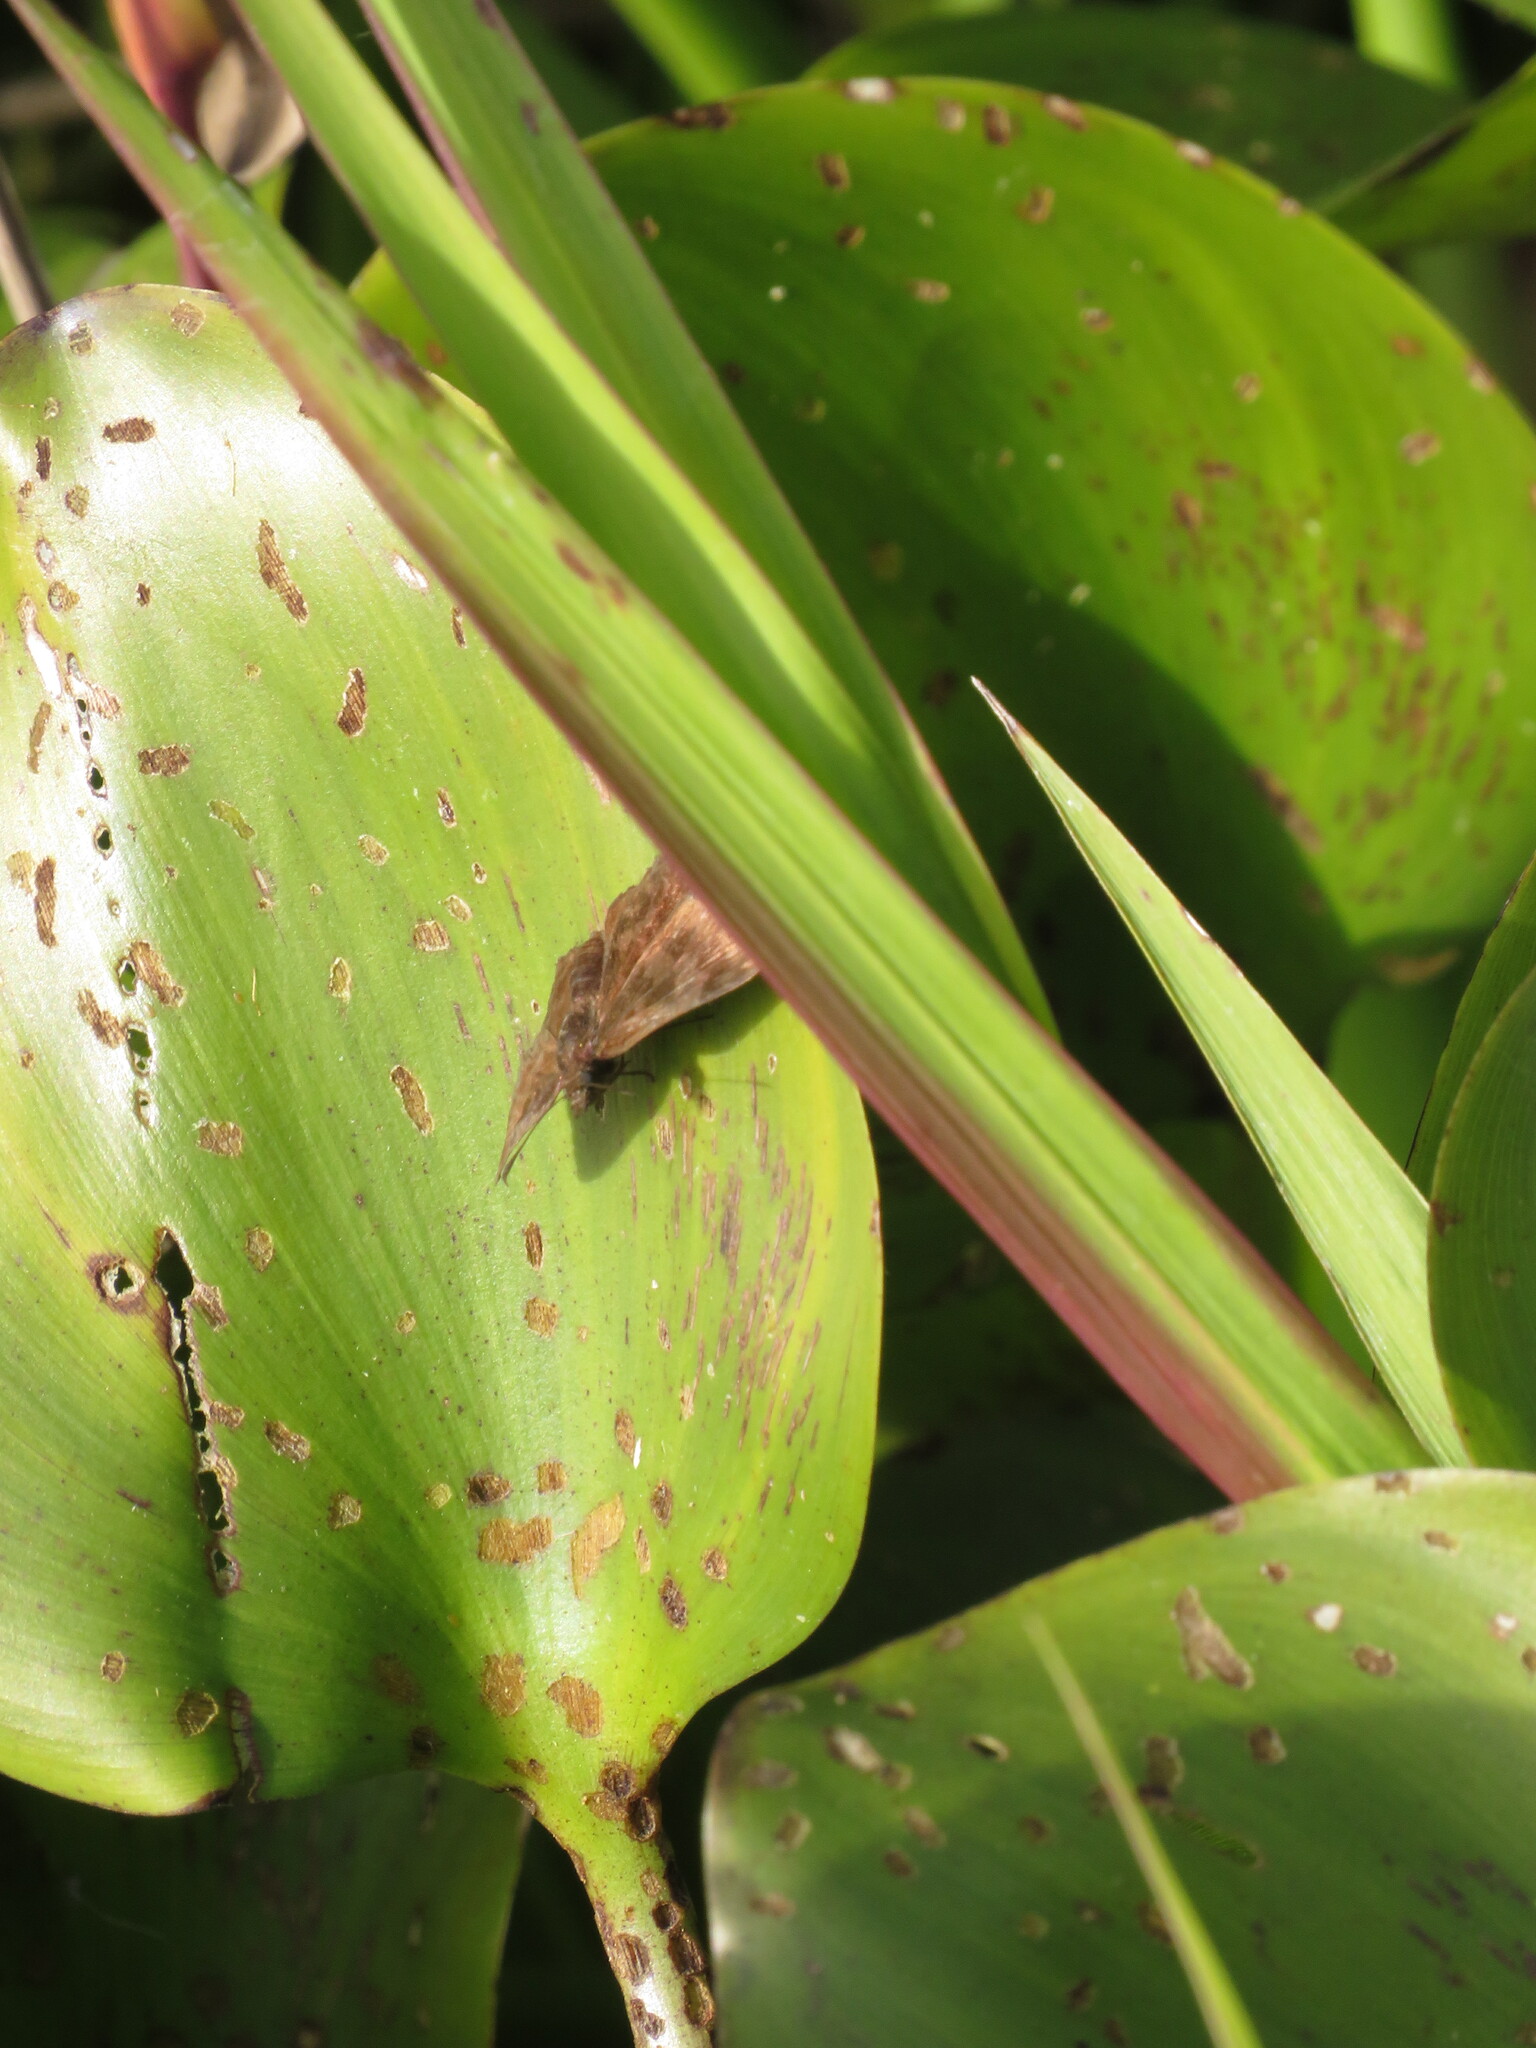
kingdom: Animalia
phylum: Arthropoda
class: Insecta
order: Lepidoptera
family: Hesperiidae
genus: Viola
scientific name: Viola minor
